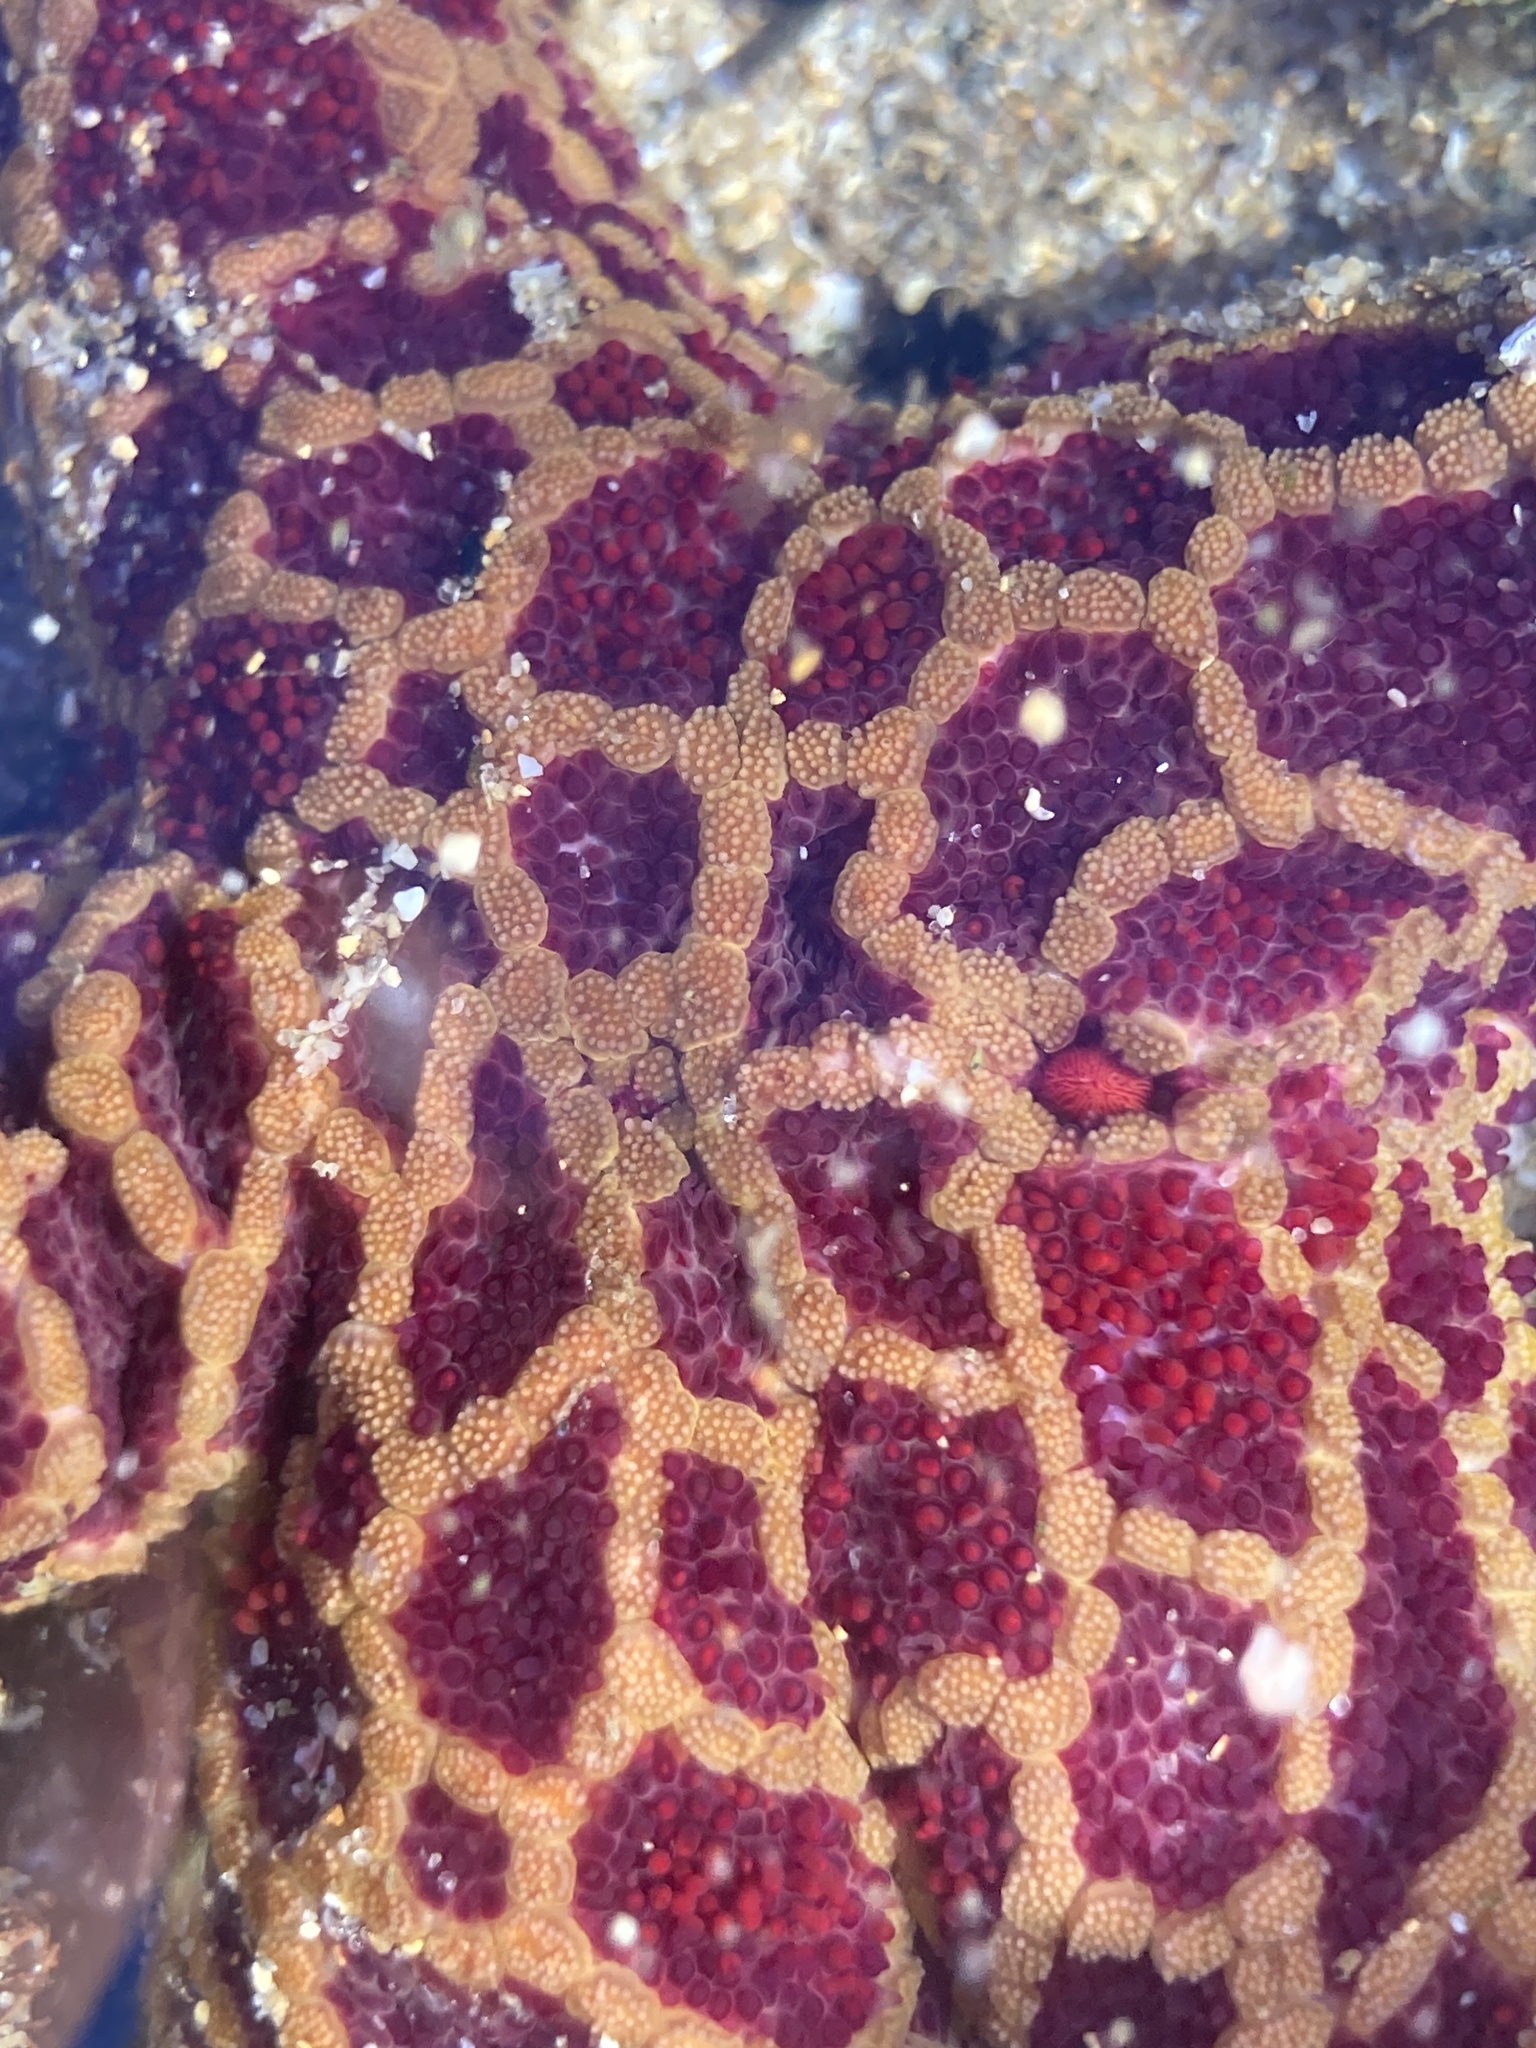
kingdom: Animalia
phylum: Echinodermata
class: Asteroidea
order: Spinulosida
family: Echinasteridae
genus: Plectaster
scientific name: Plectaster decanus
